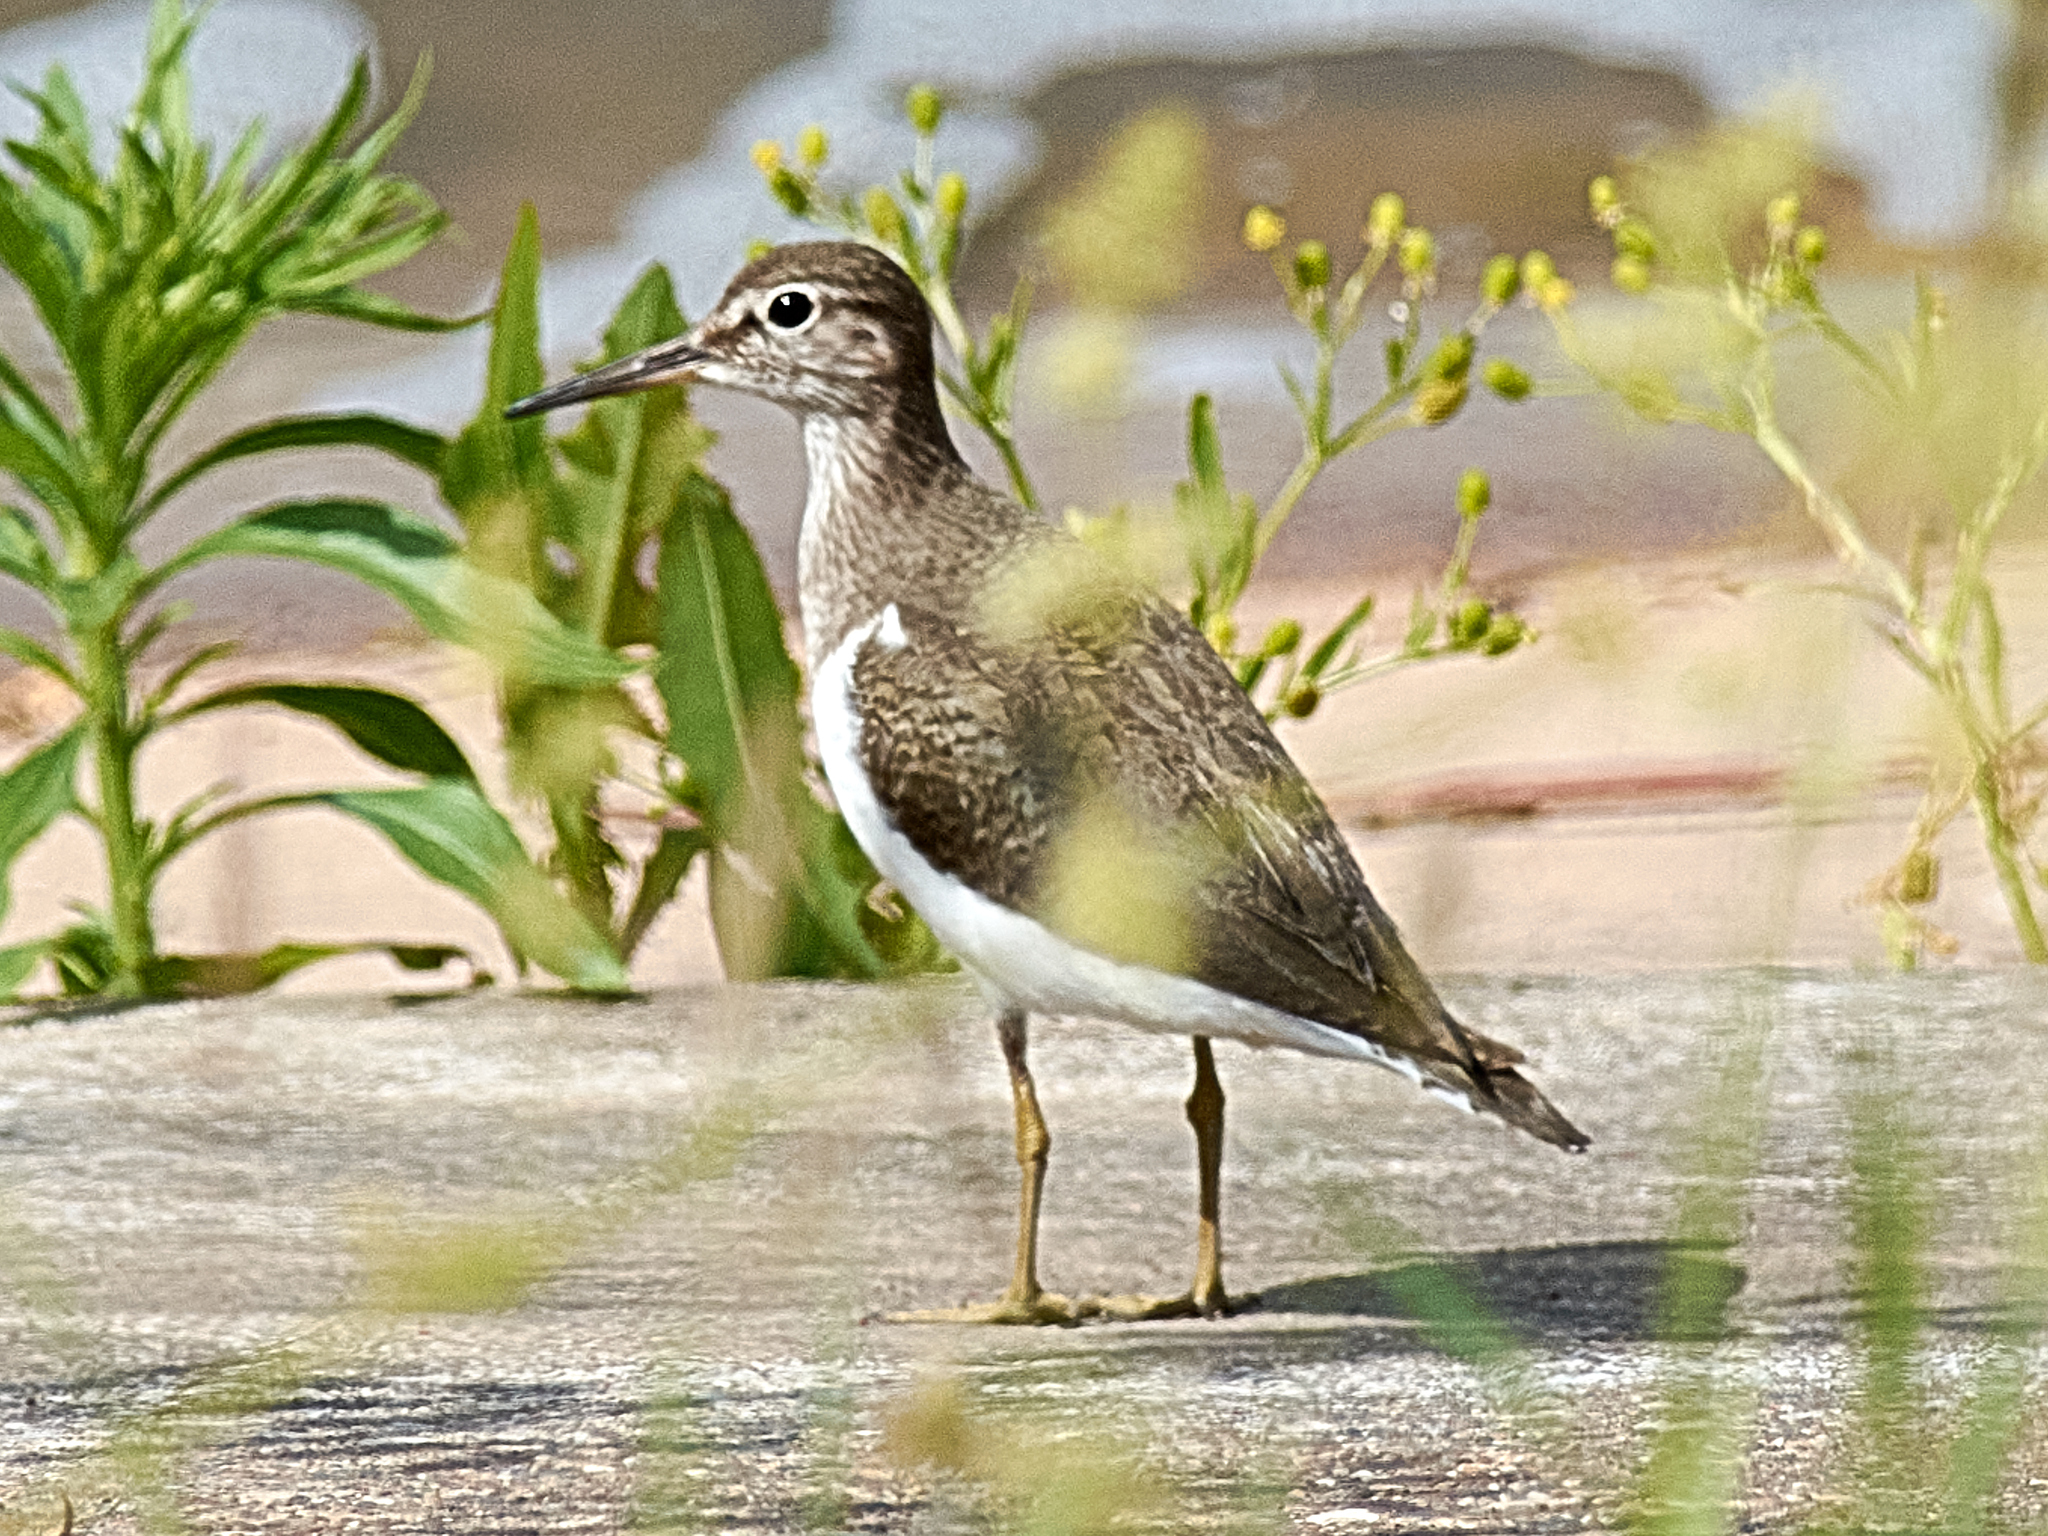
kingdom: Animalia
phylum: Chordata
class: Aves
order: Charadriiformes
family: Scolopacidae
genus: Actitis
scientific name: Actitis hypoleucos
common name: Common sandpiper
